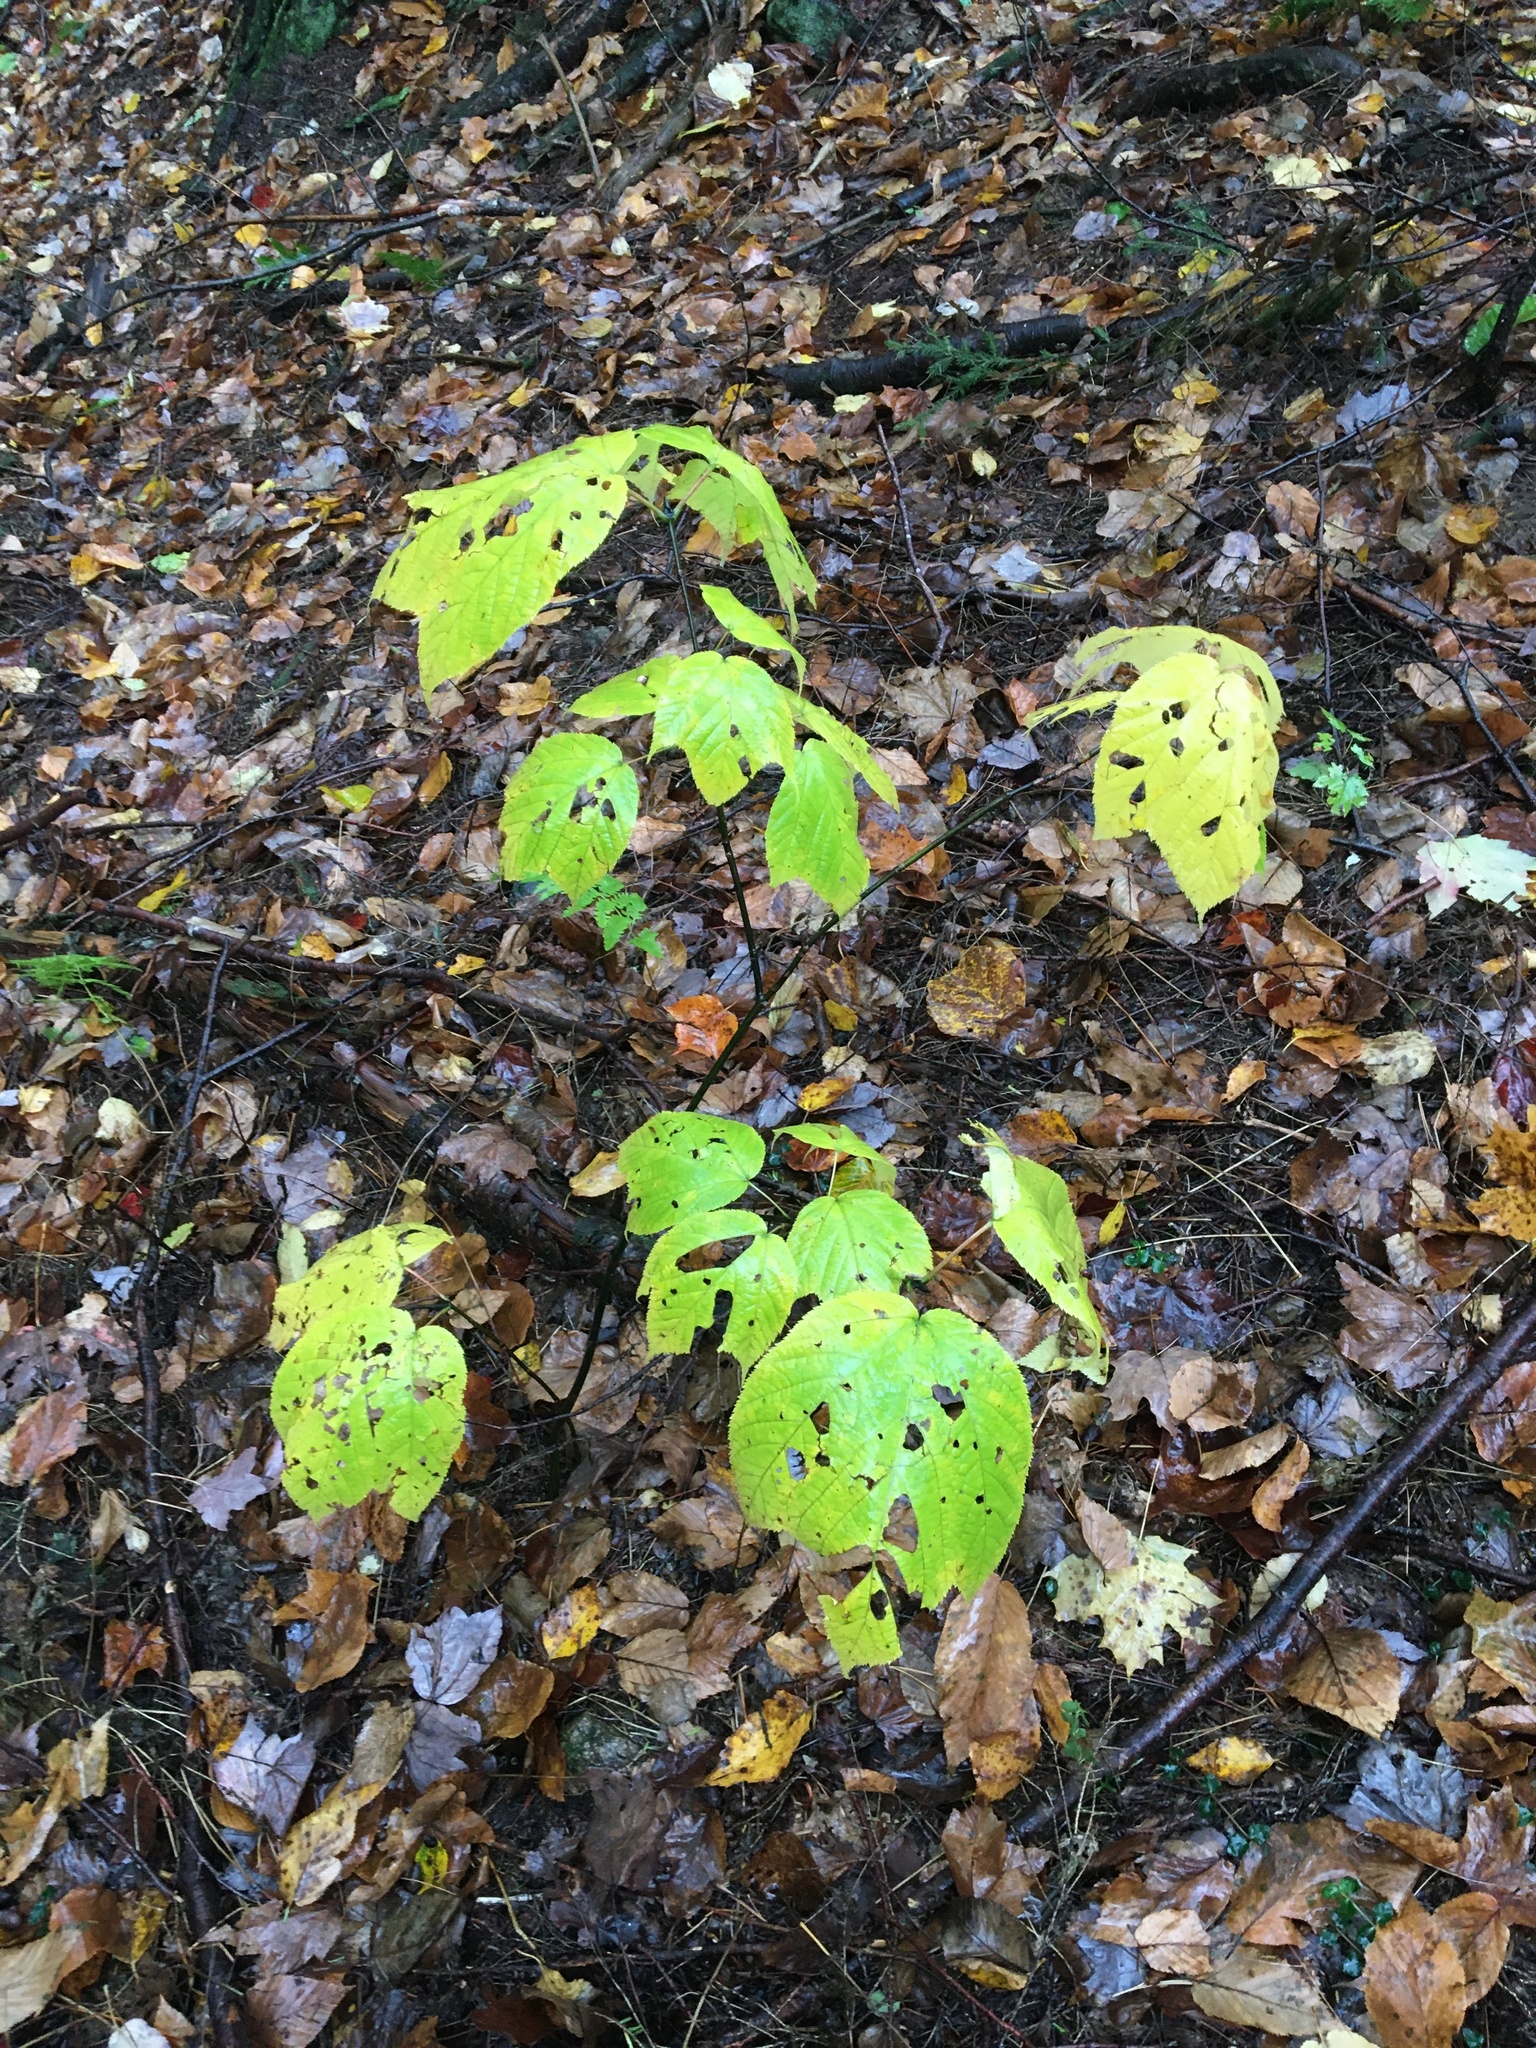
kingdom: Plantae
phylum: Tracheophyta
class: Magnoliopsida
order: Sapindales
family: Sapindaceae
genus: Acer
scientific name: Acer pensylvanicum
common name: Moosewood
